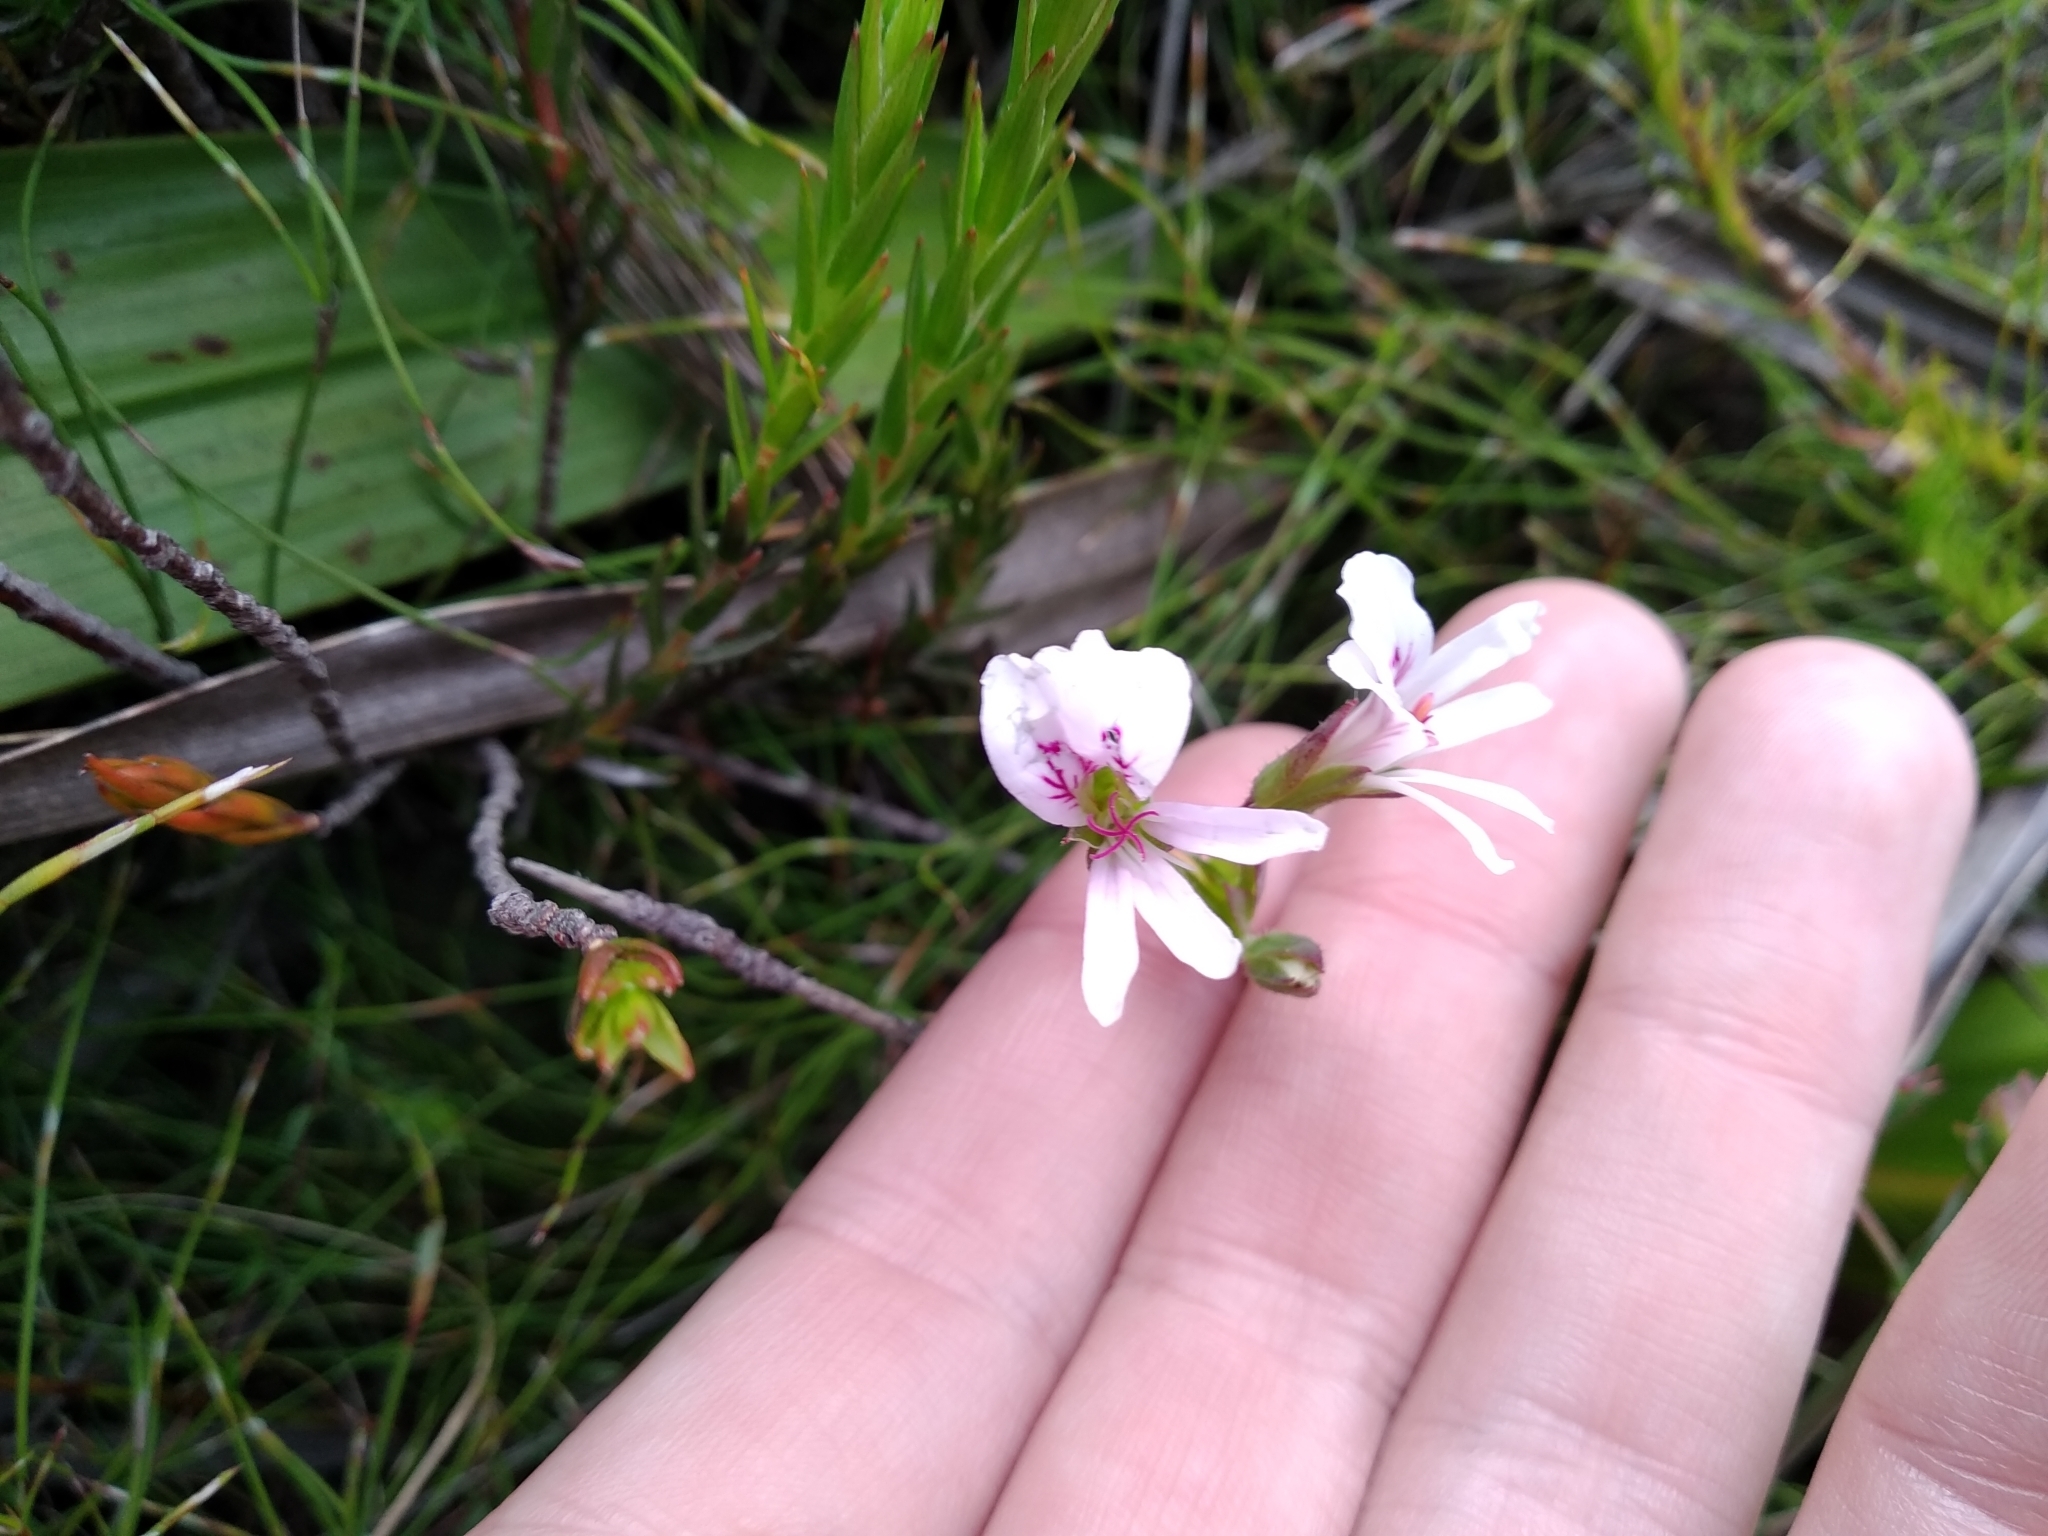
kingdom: Plantae
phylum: Tracheophyta
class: Magnoliopsida
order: Geraniales
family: Geraniaceae
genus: Pelargonium
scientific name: Pelargonium tabulare
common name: Table mountain pelargonium
